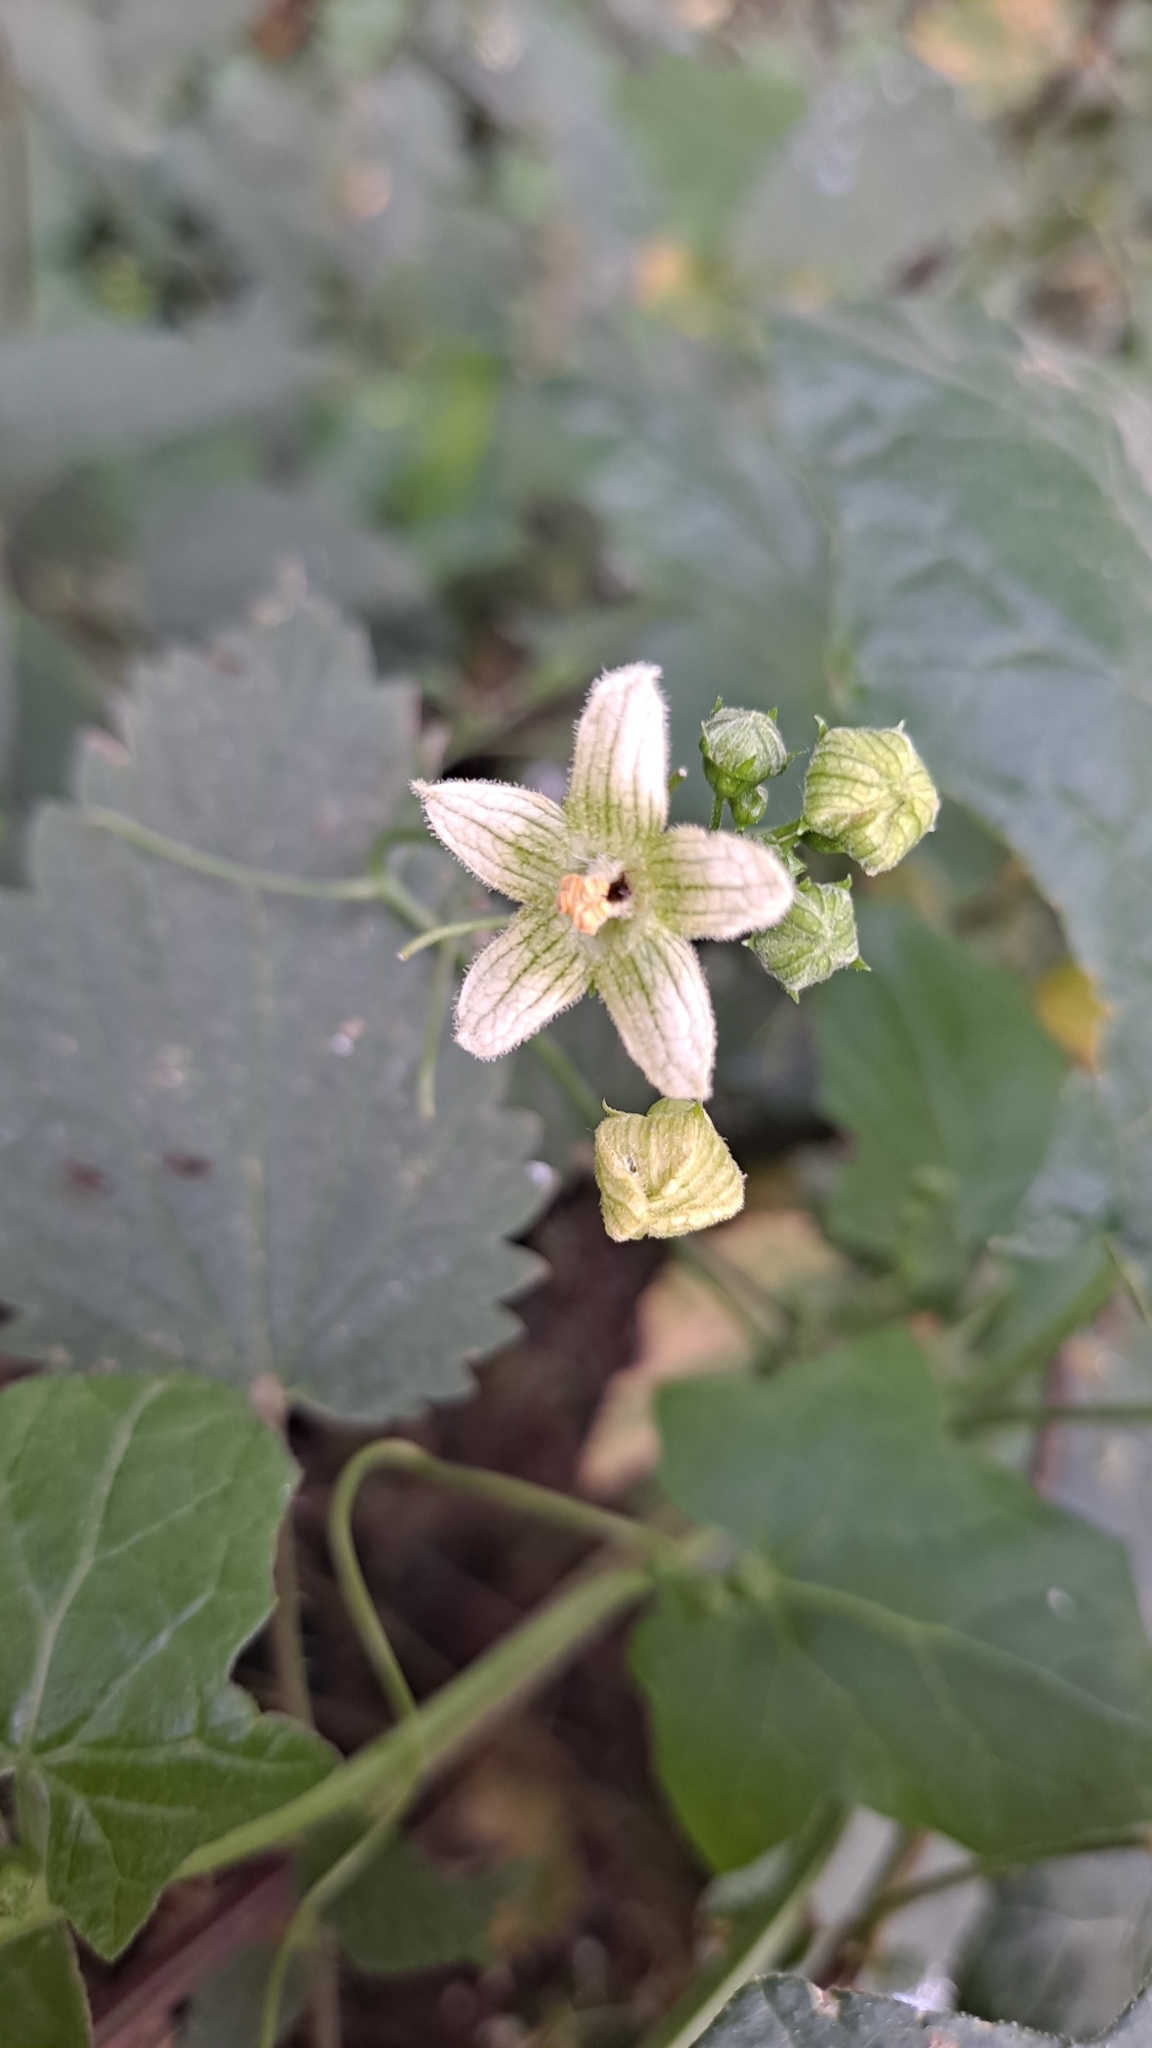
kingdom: Plantae
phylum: Tracheophyta
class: Magnoliopsida
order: Cucurbitales
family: Cucurbitaceae
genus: Bryonia
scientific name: Bryonia cretica
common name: Cretan bryony
